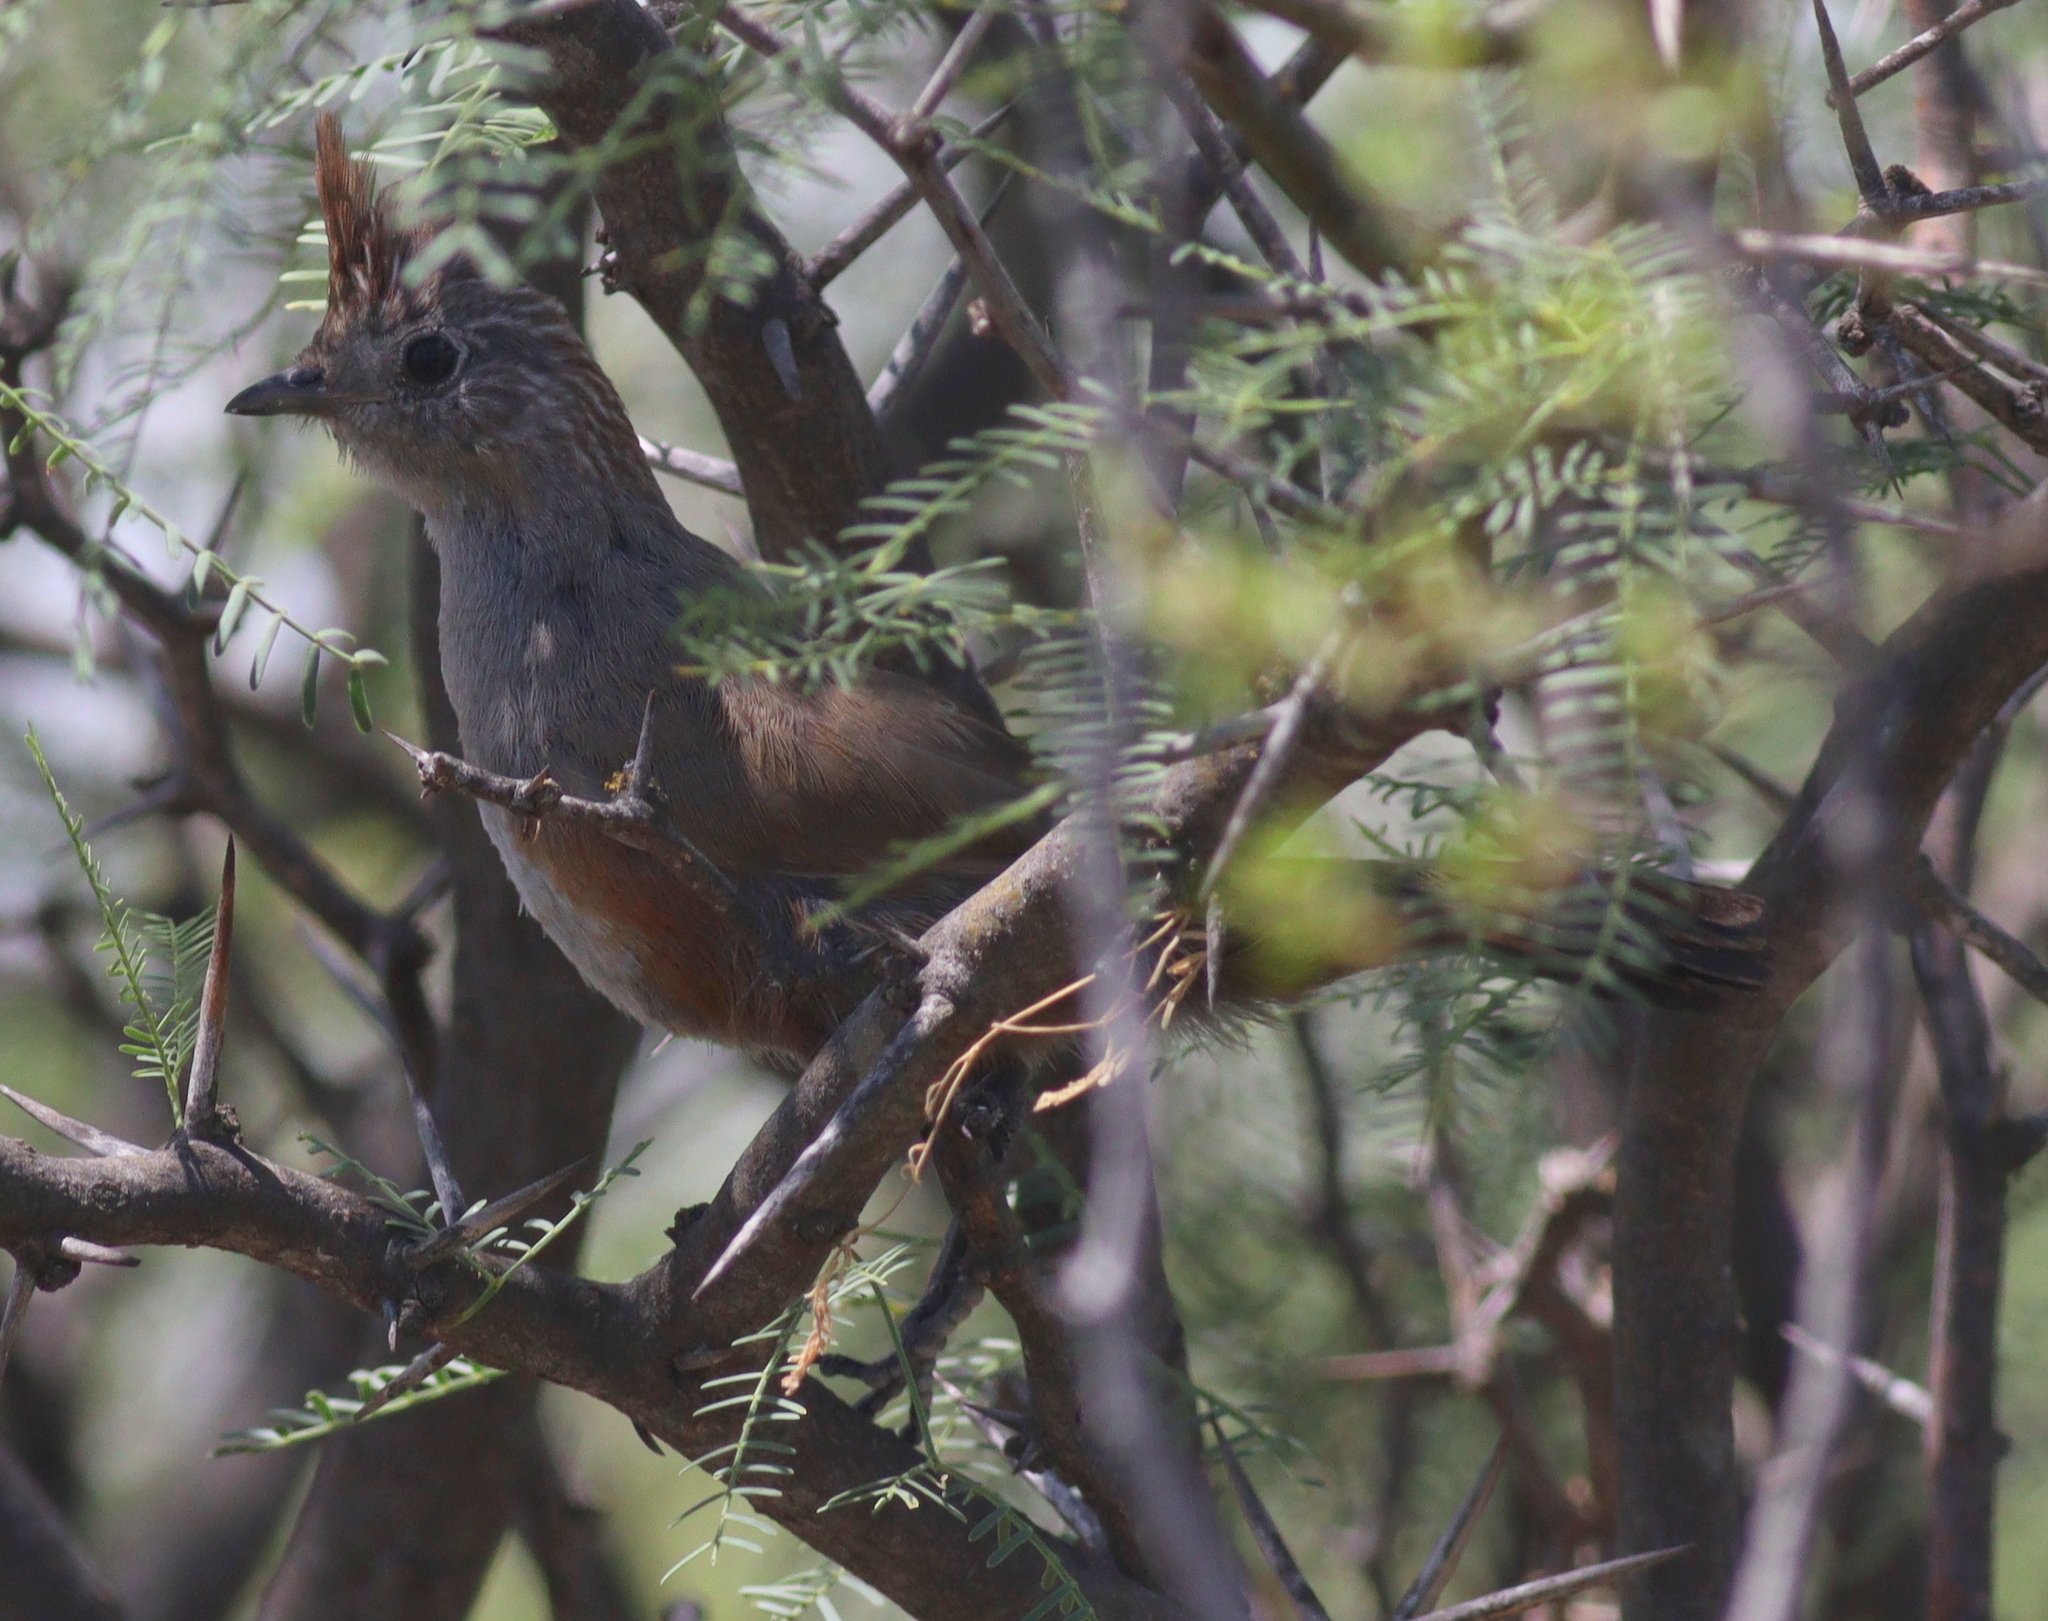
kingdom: Animalia
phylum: Chordata
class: Aves
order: Passeriformes
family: Rhinocryptidae
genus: Rhinocrypta
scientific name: Rhinocrypta lanceolata
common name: Crested gallito
